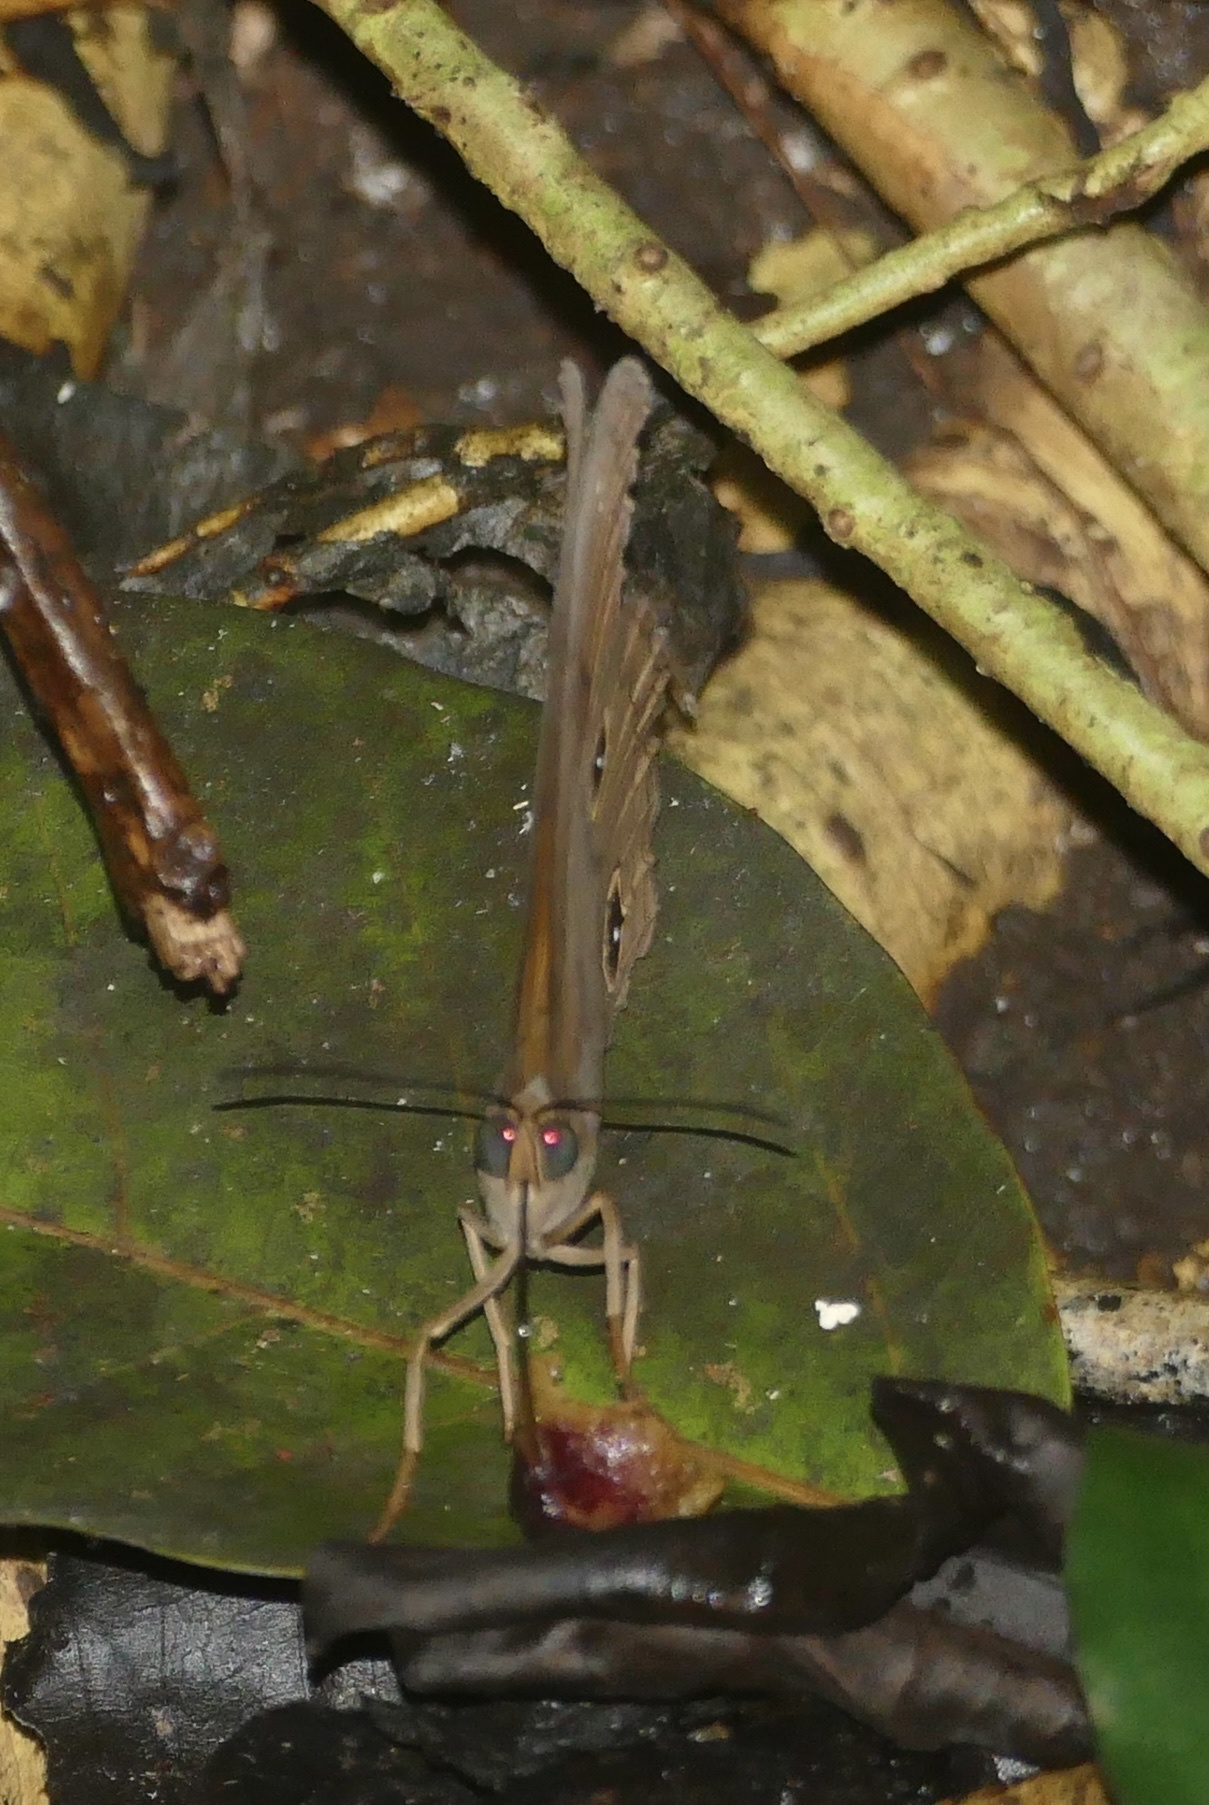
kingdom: Animalia
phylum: Arthropoda
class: Insecta
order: Lepidoptera
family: Nymphalidae
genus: Faunis
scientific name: Faunis menado
